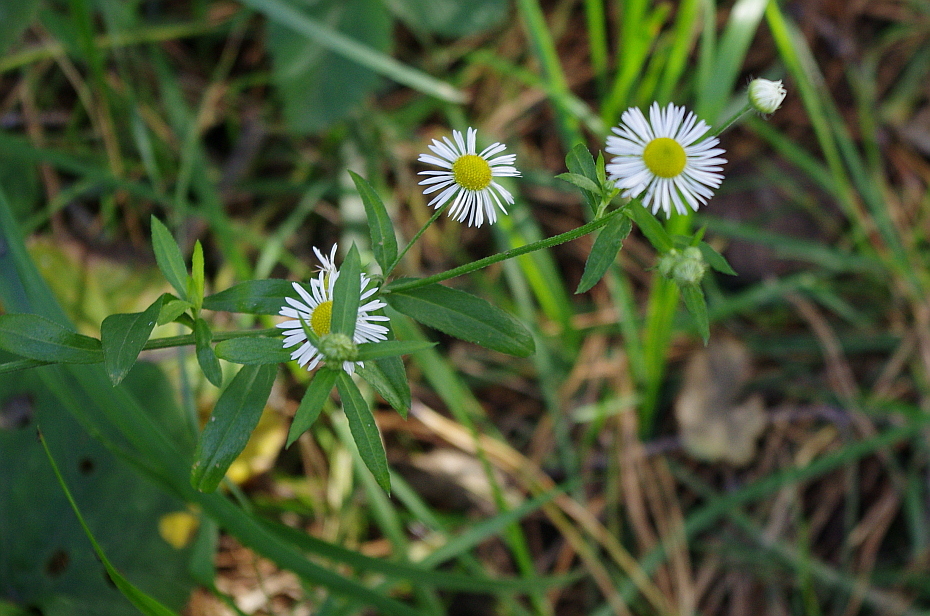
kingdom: Plantae
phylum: Tracheophyta
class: Magnoliopsida
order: Asterales
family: Asteraceae
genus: Erigeron
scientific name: Erigeron annuus
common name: Tall fleabane
